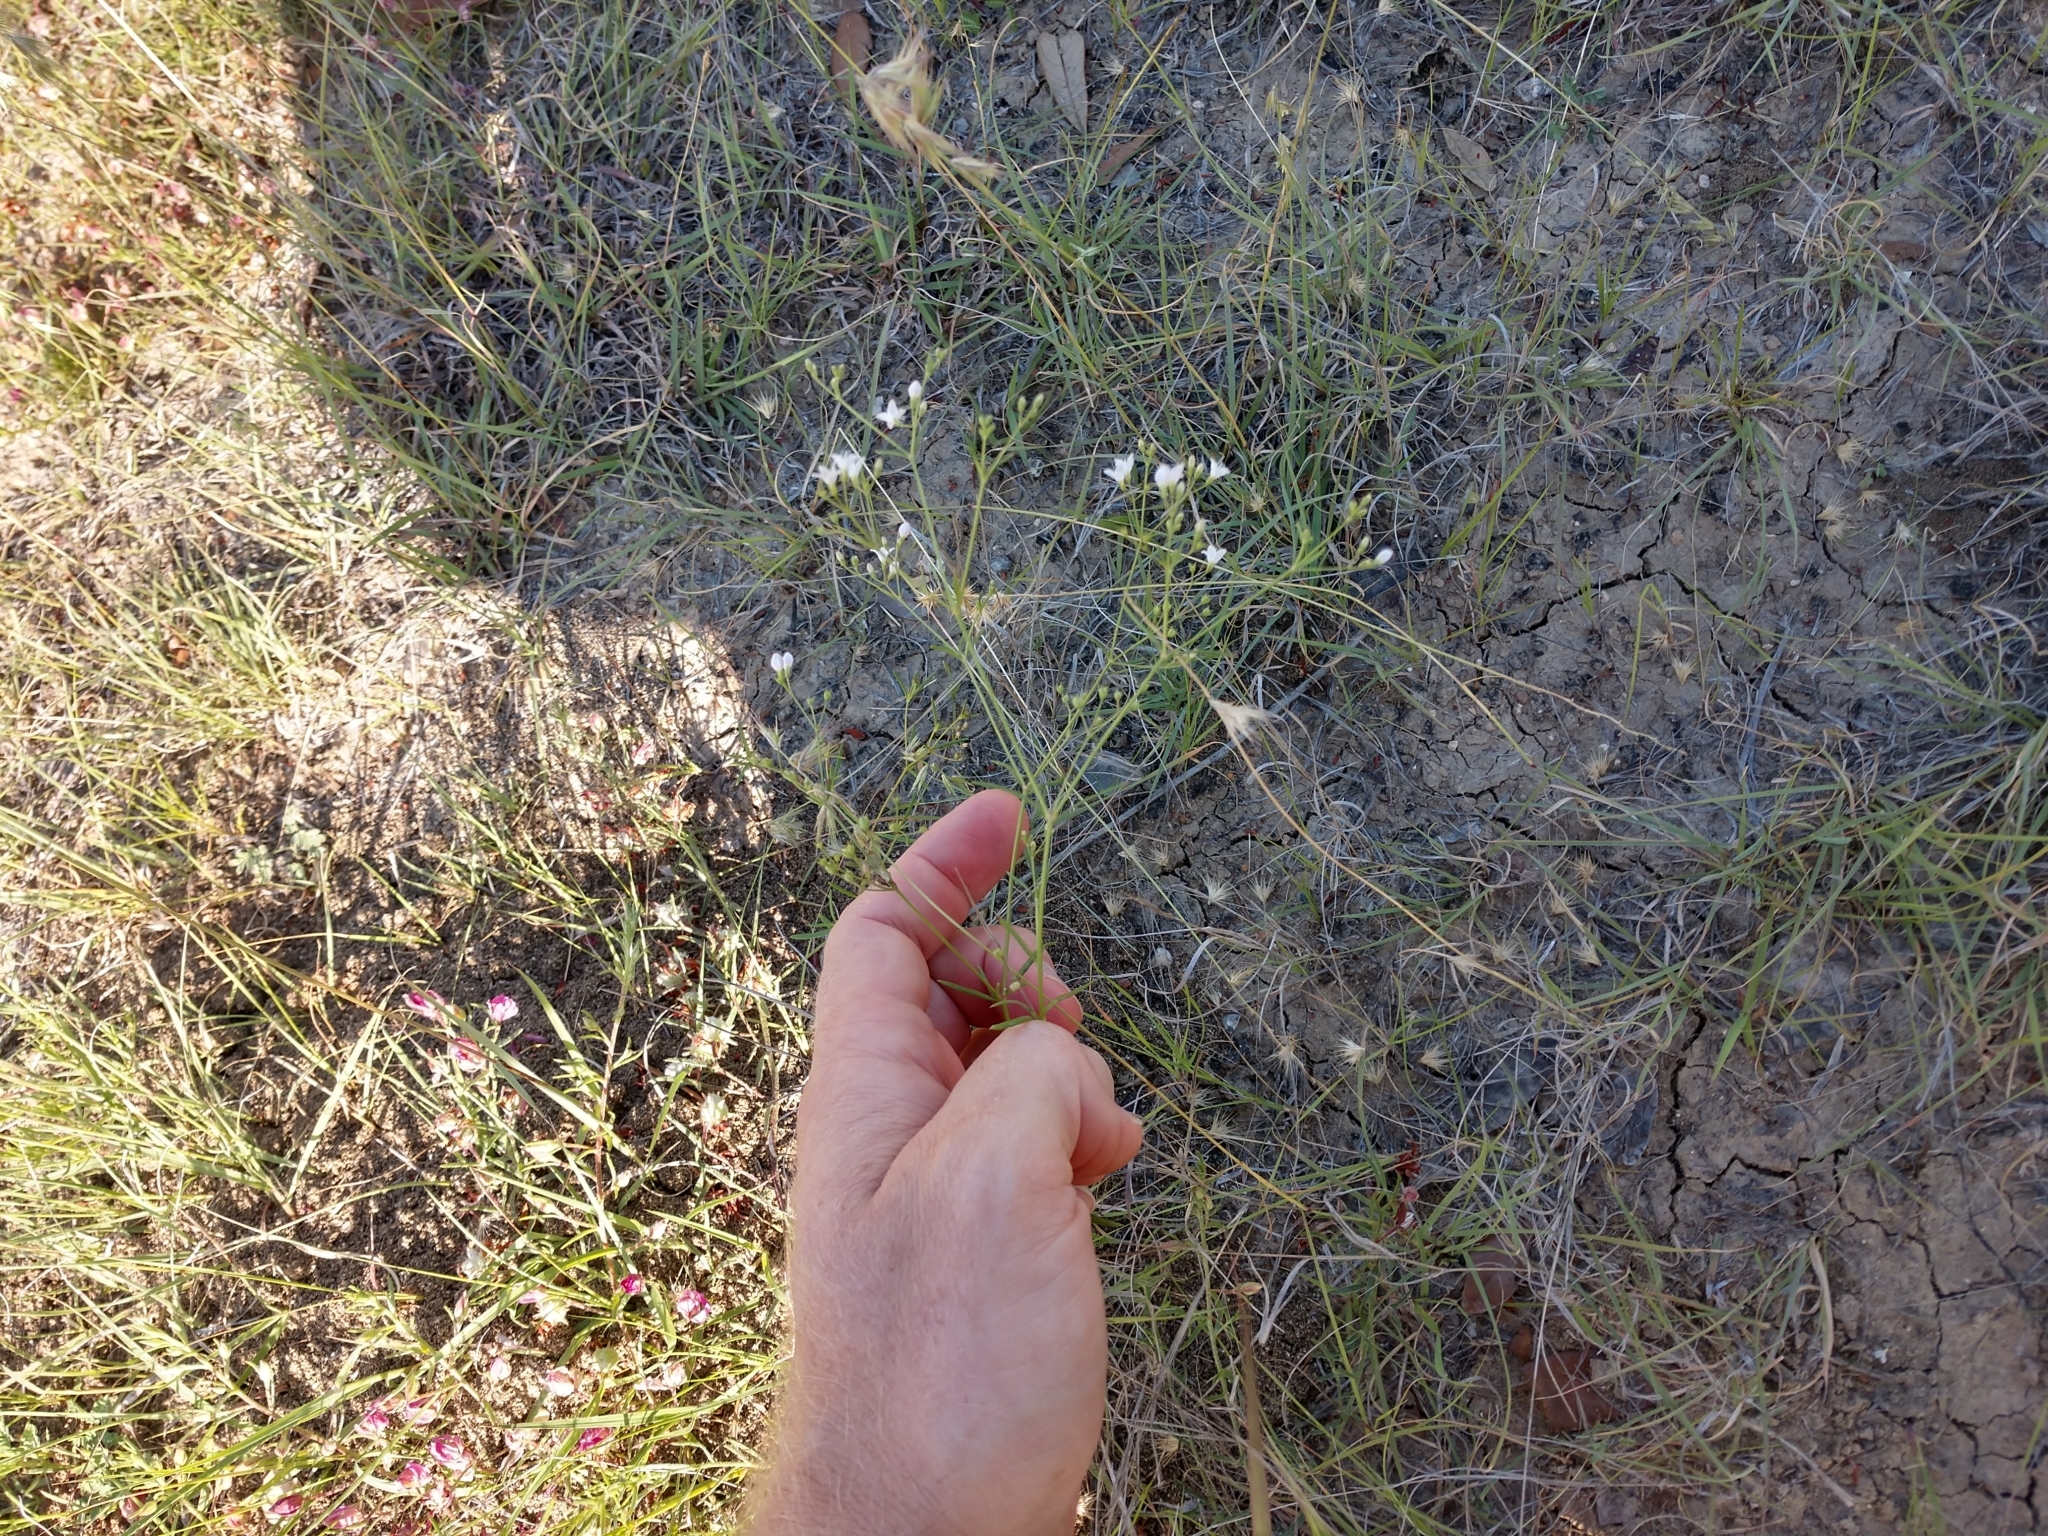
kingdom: Plantae
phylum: Tracheophyta
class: Magnoliopsida
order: Gentianales
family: Rubiaceae
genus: Stenaria
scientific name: Stenaria nigricans
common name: Diamondflowers
